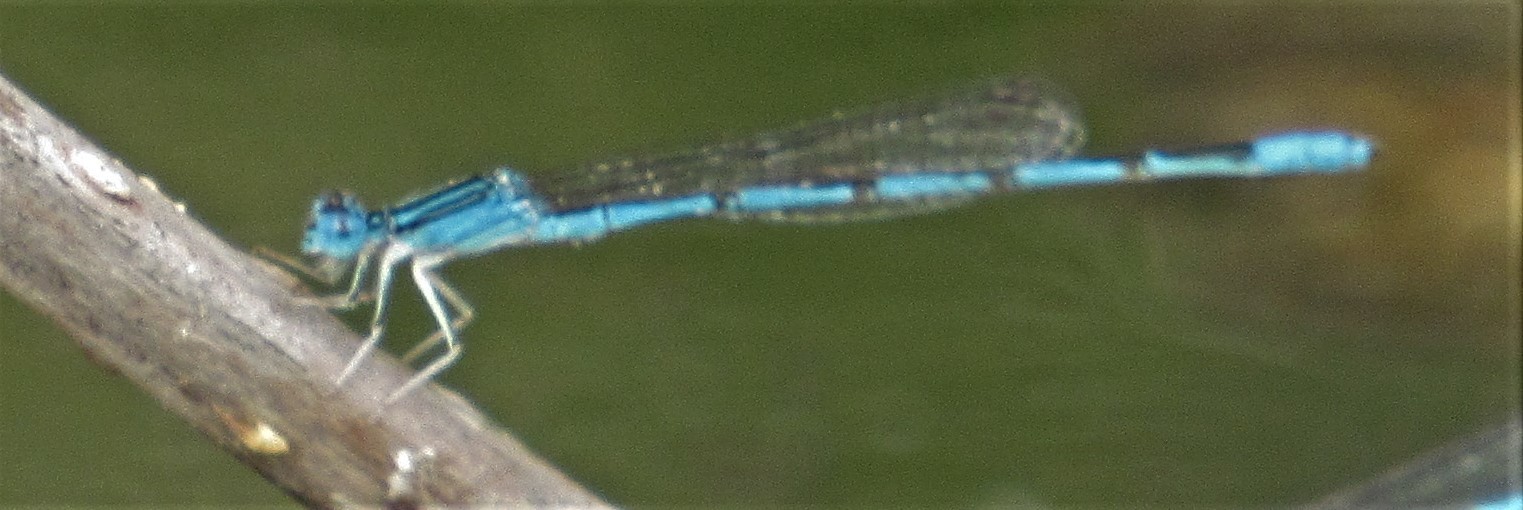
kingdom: Animalia
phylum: Arthropoda
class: Insecta
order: Odonata
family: Coenagrionidae
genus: Enallagma
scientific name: Enallagma basidens
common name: Double-striped bluet
